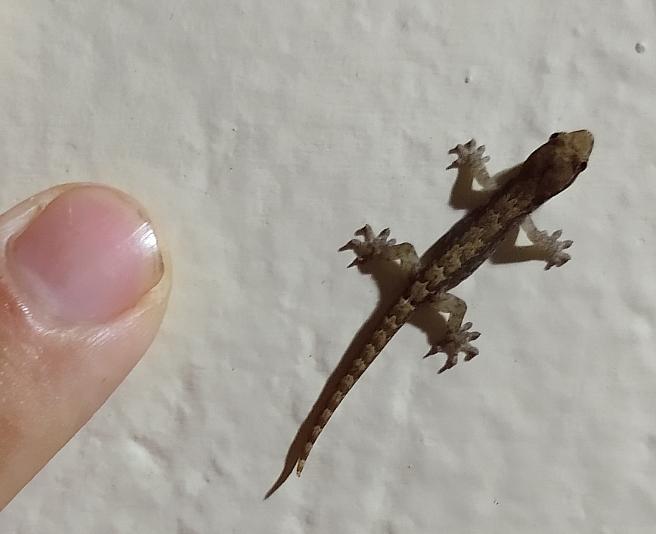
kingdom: Animalia
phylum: Chordata
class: Squamata
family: Gekkonidae
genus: Lepidodactylus
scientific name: Lepidodactylus lugubris
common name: Mourning gecko
